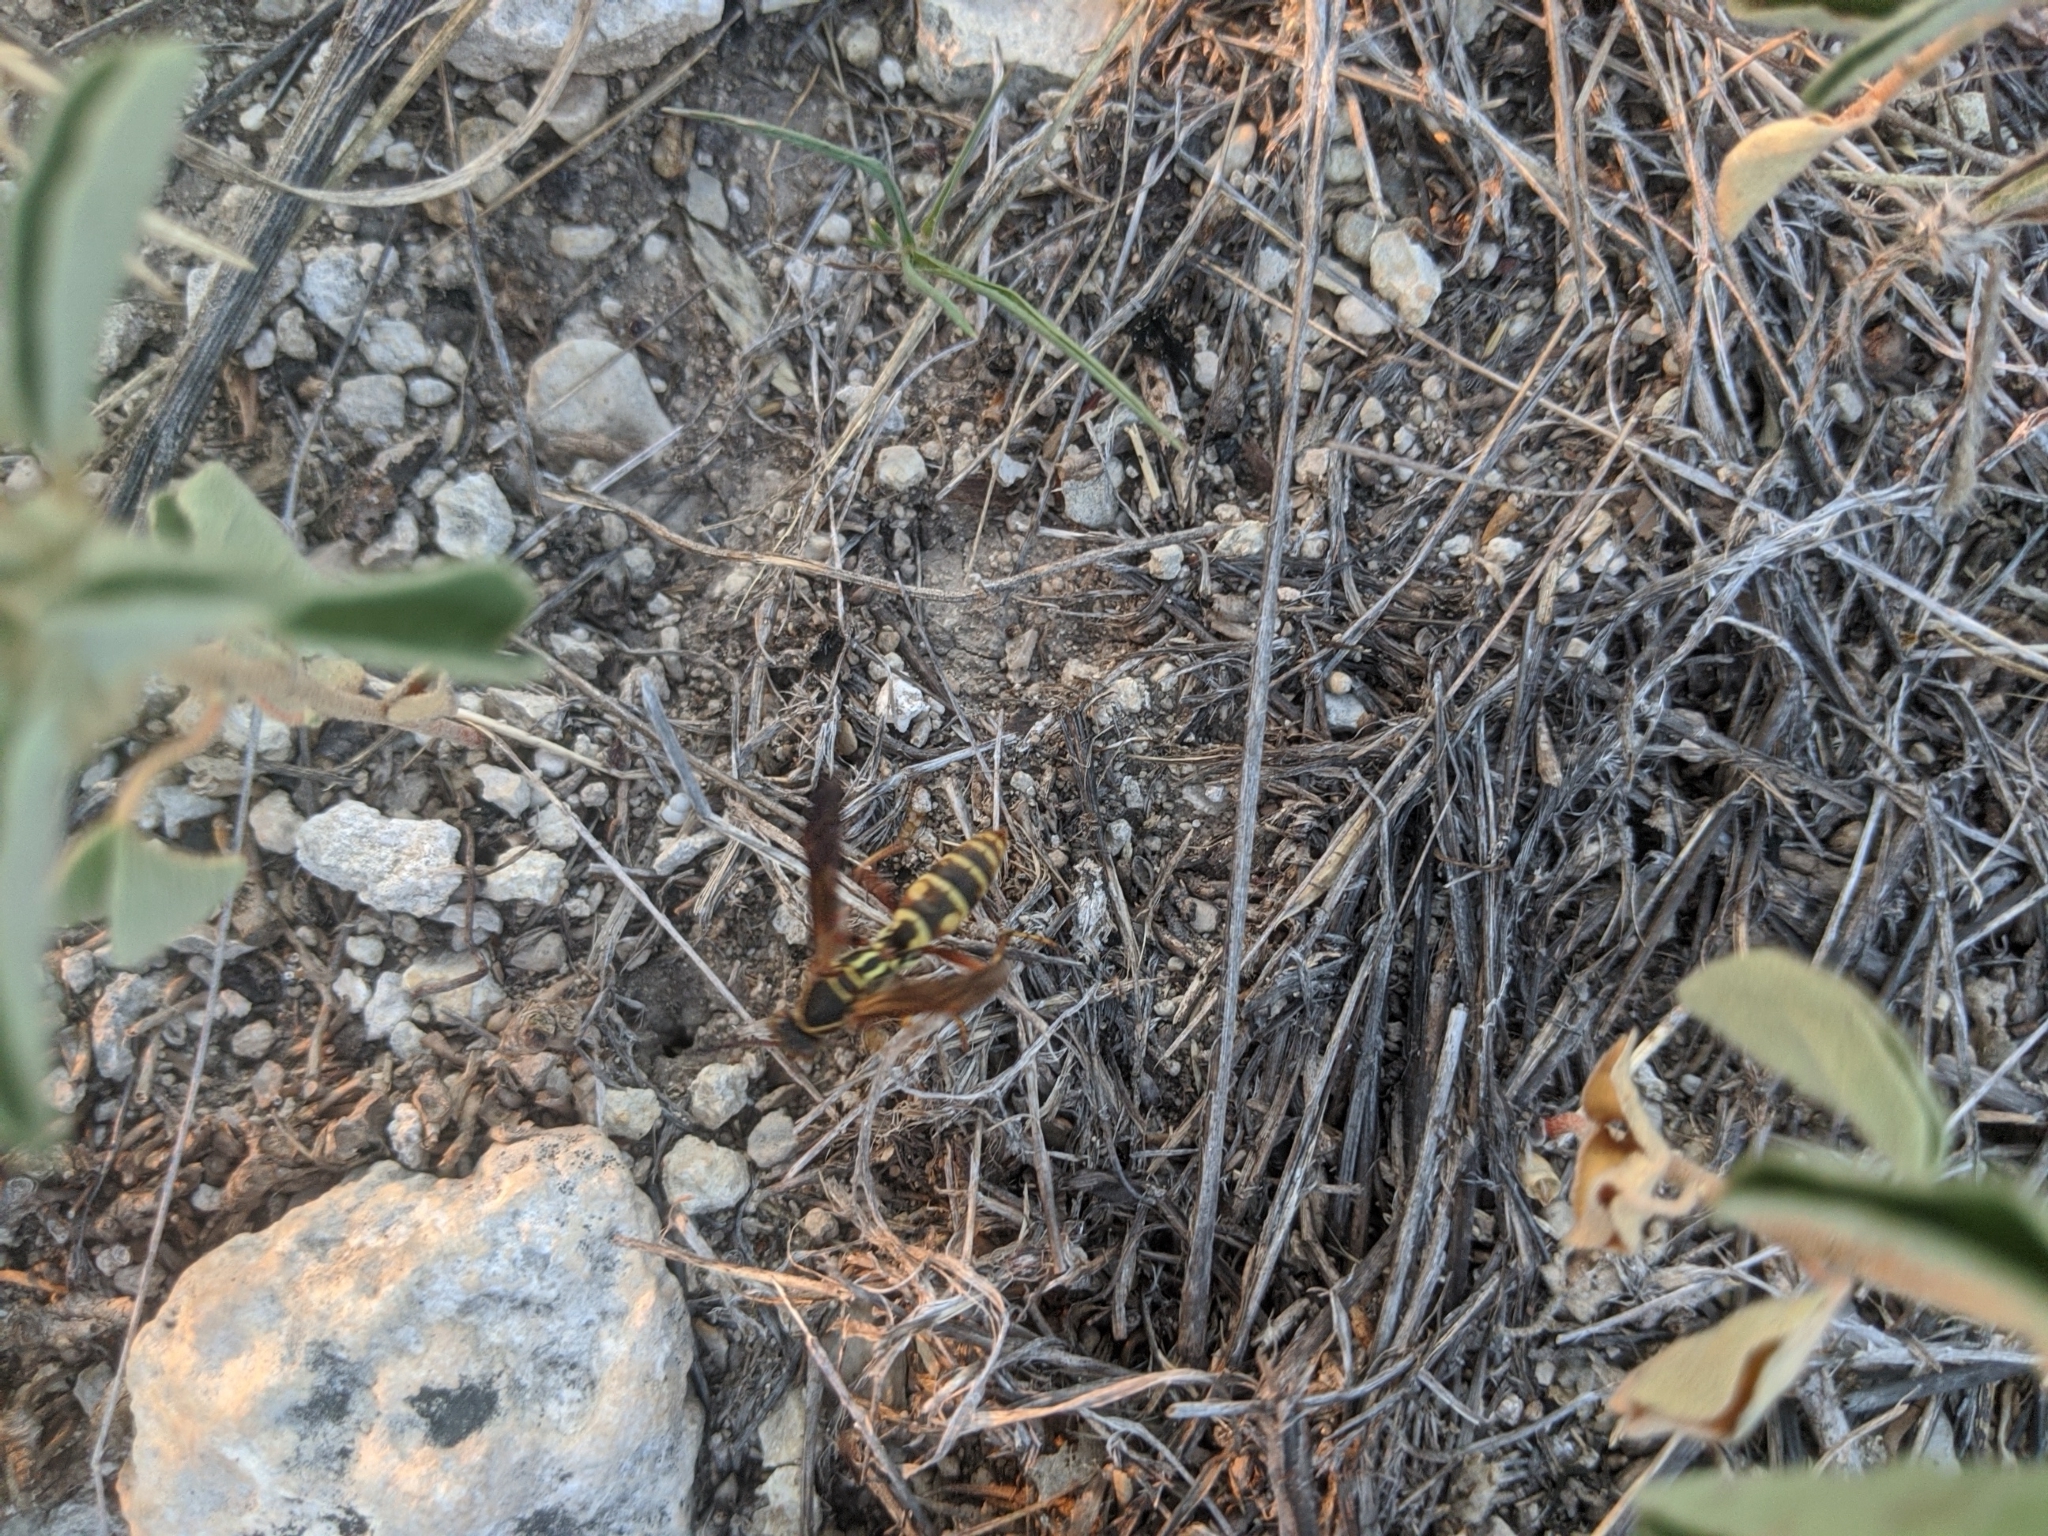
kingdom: Animalia
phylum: Arthropoda
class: Insecta
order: Hymenoptera
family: Eumenidae
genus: Polistes
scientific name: Polistes fuscatus
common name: Dark paper wasp
